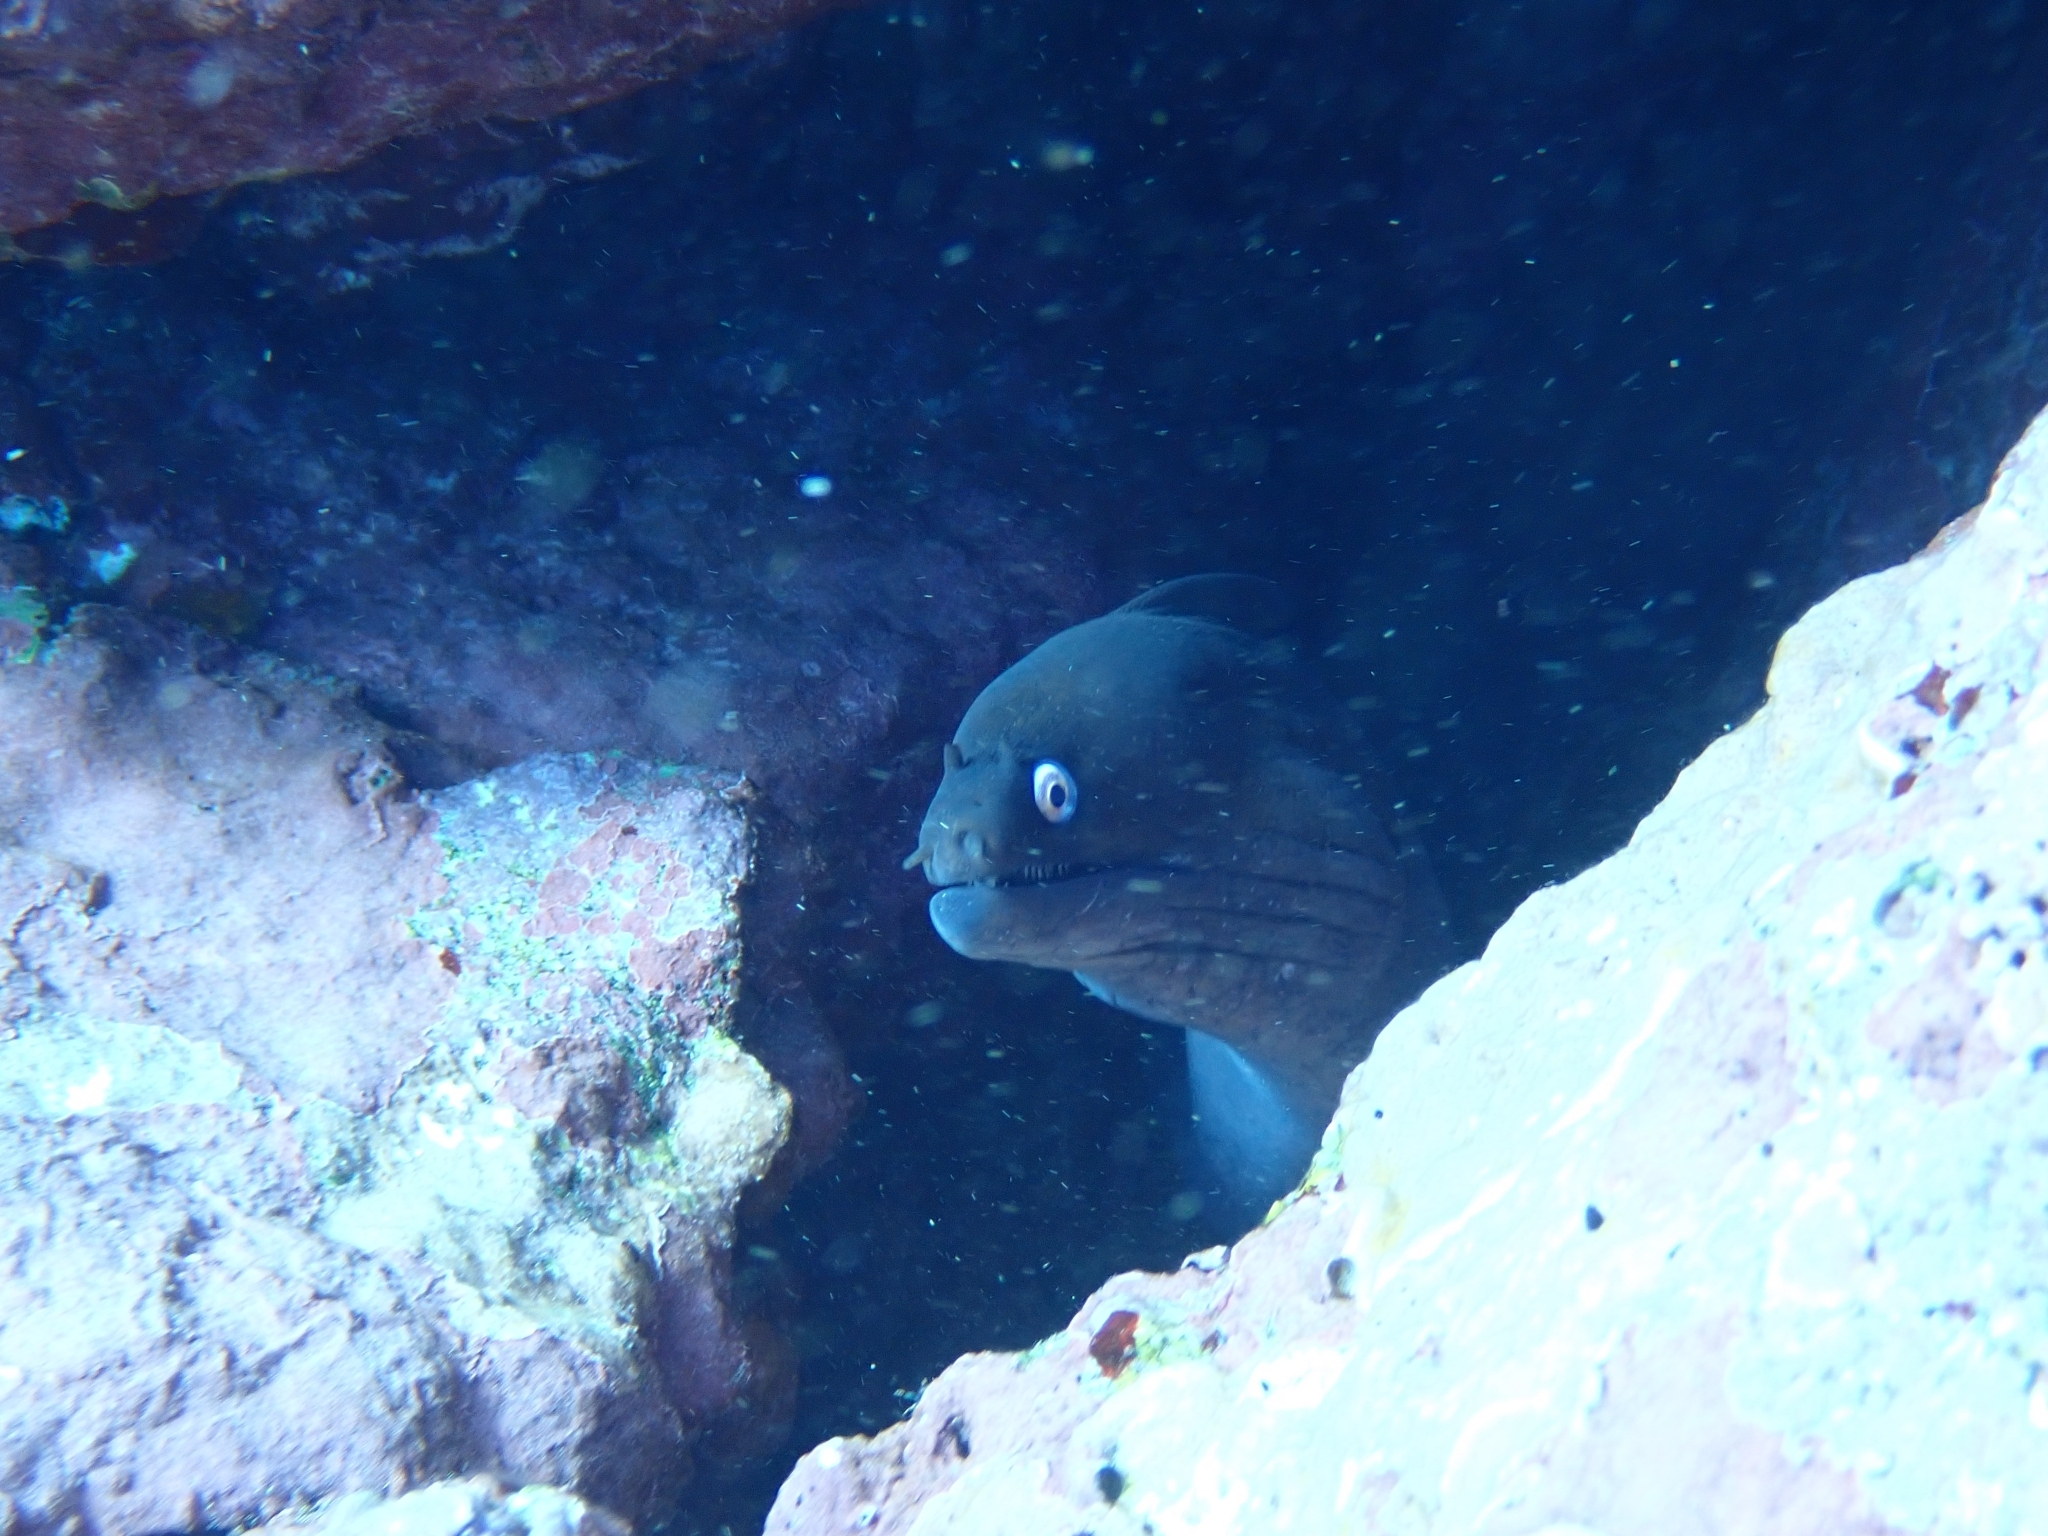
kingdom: Animalia
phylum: Chordata
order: Anguilliformes
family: Muraenidae
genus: Muraena
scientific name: Muraena augusti
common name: Mediterranean moray
